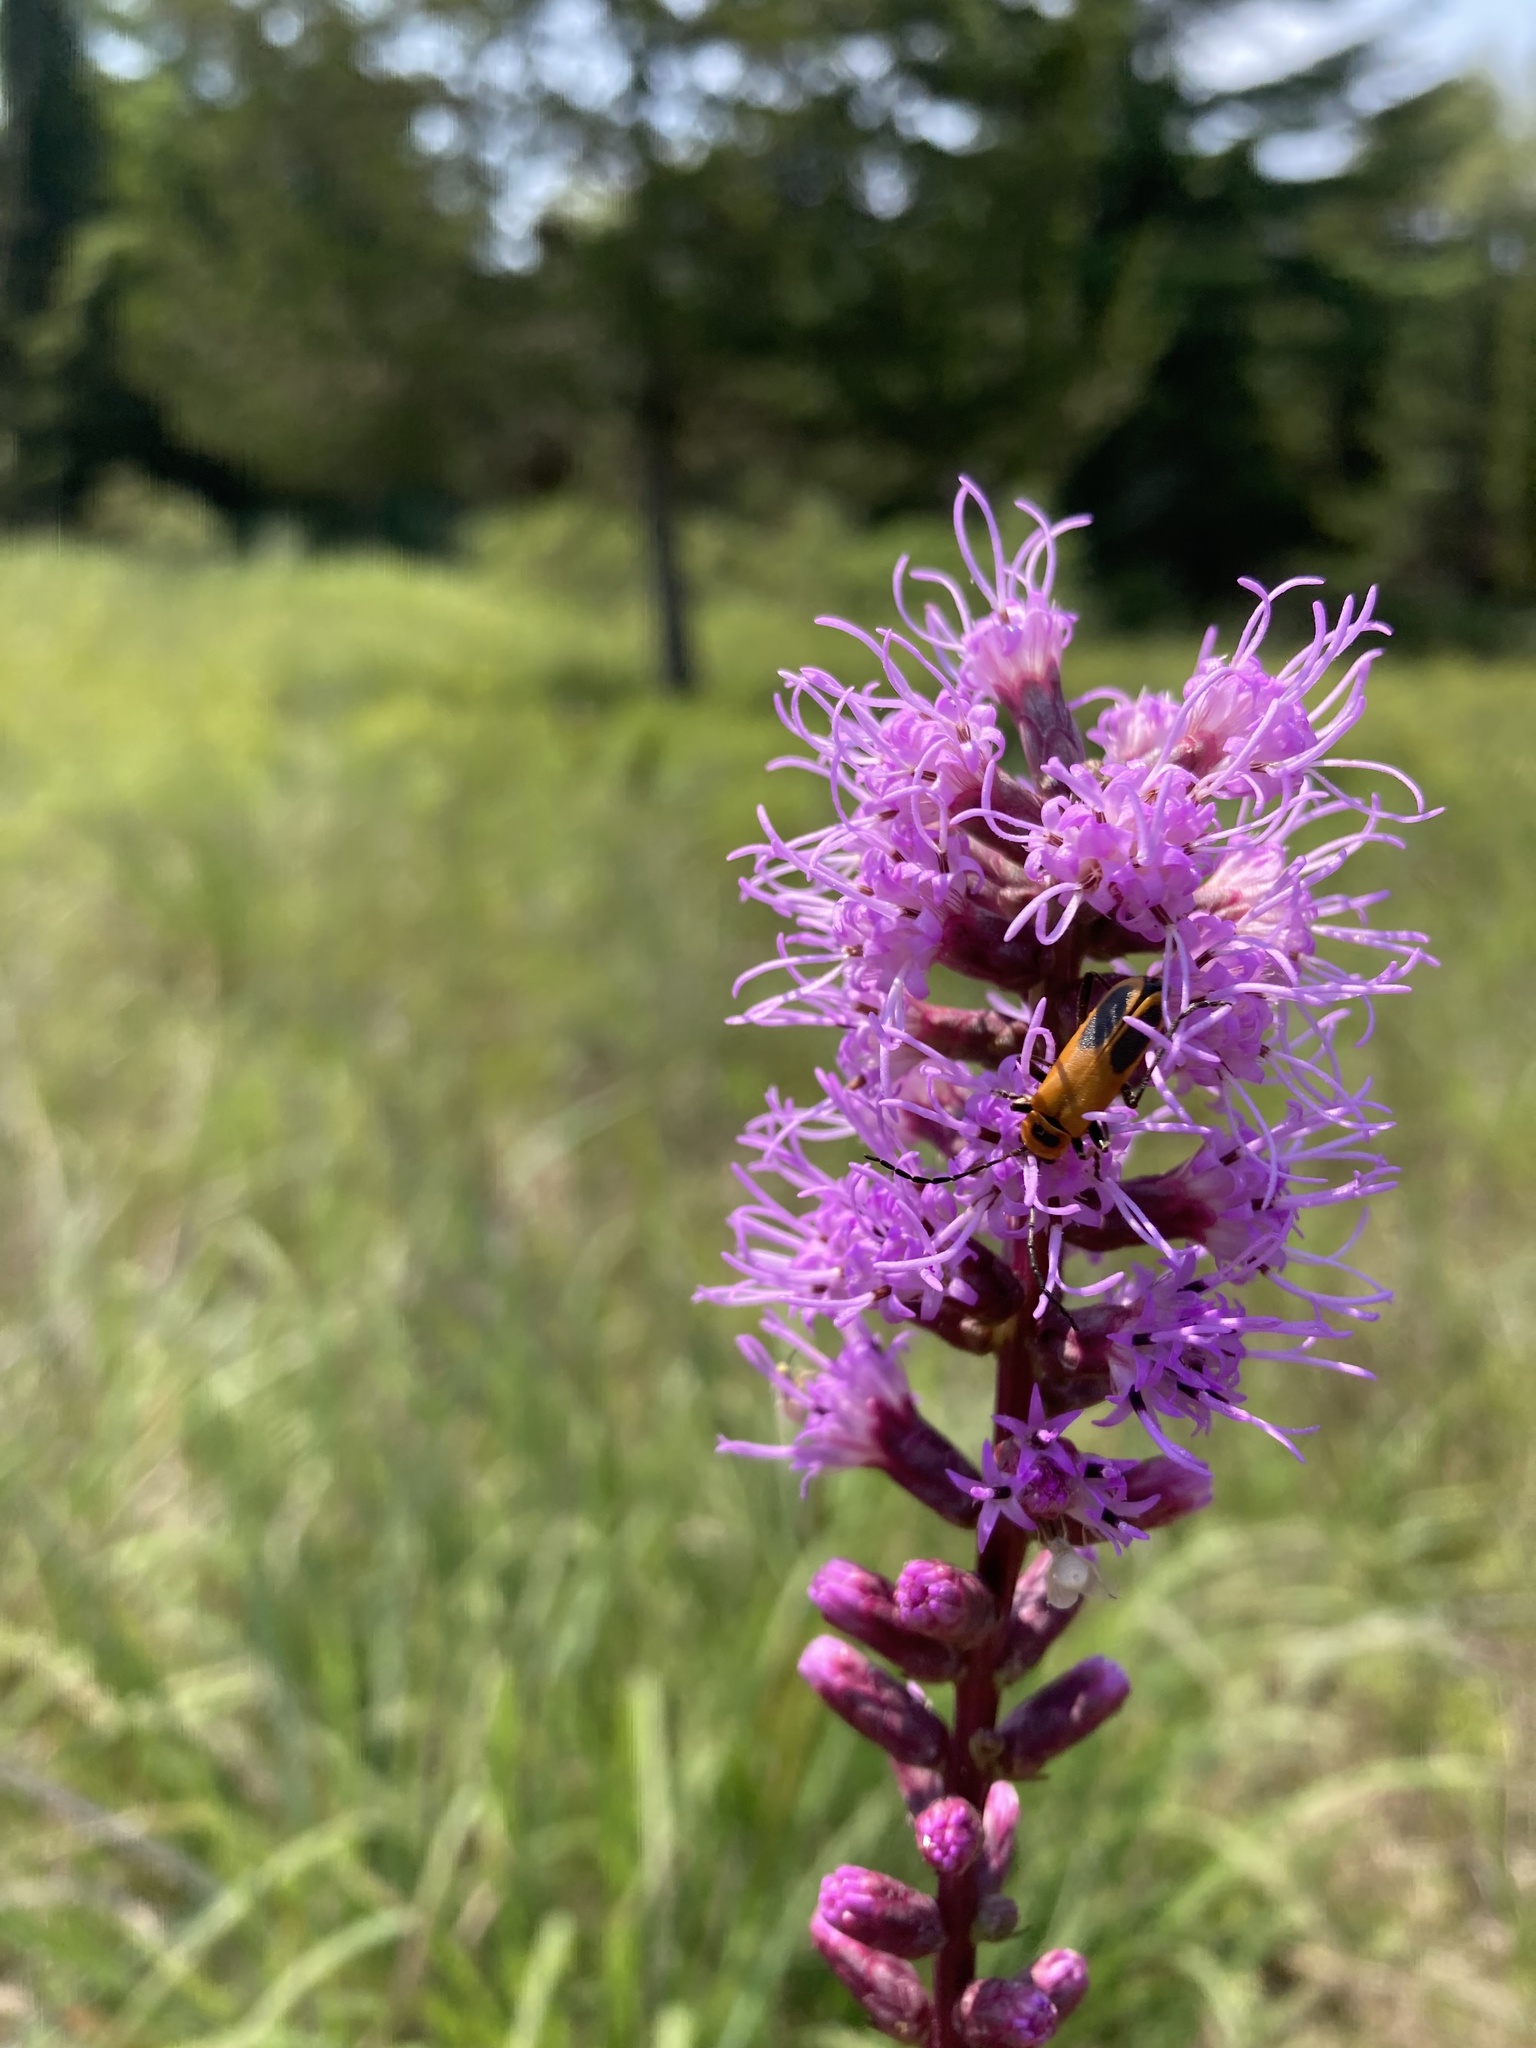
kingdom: Animalia
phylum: Arthropoda
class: Insecta
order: Coleoptera
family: Cantharidae
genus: Chauliognathus
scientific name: Chauliognathus pensylvanicus
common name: Goldenrod soldier beetle
